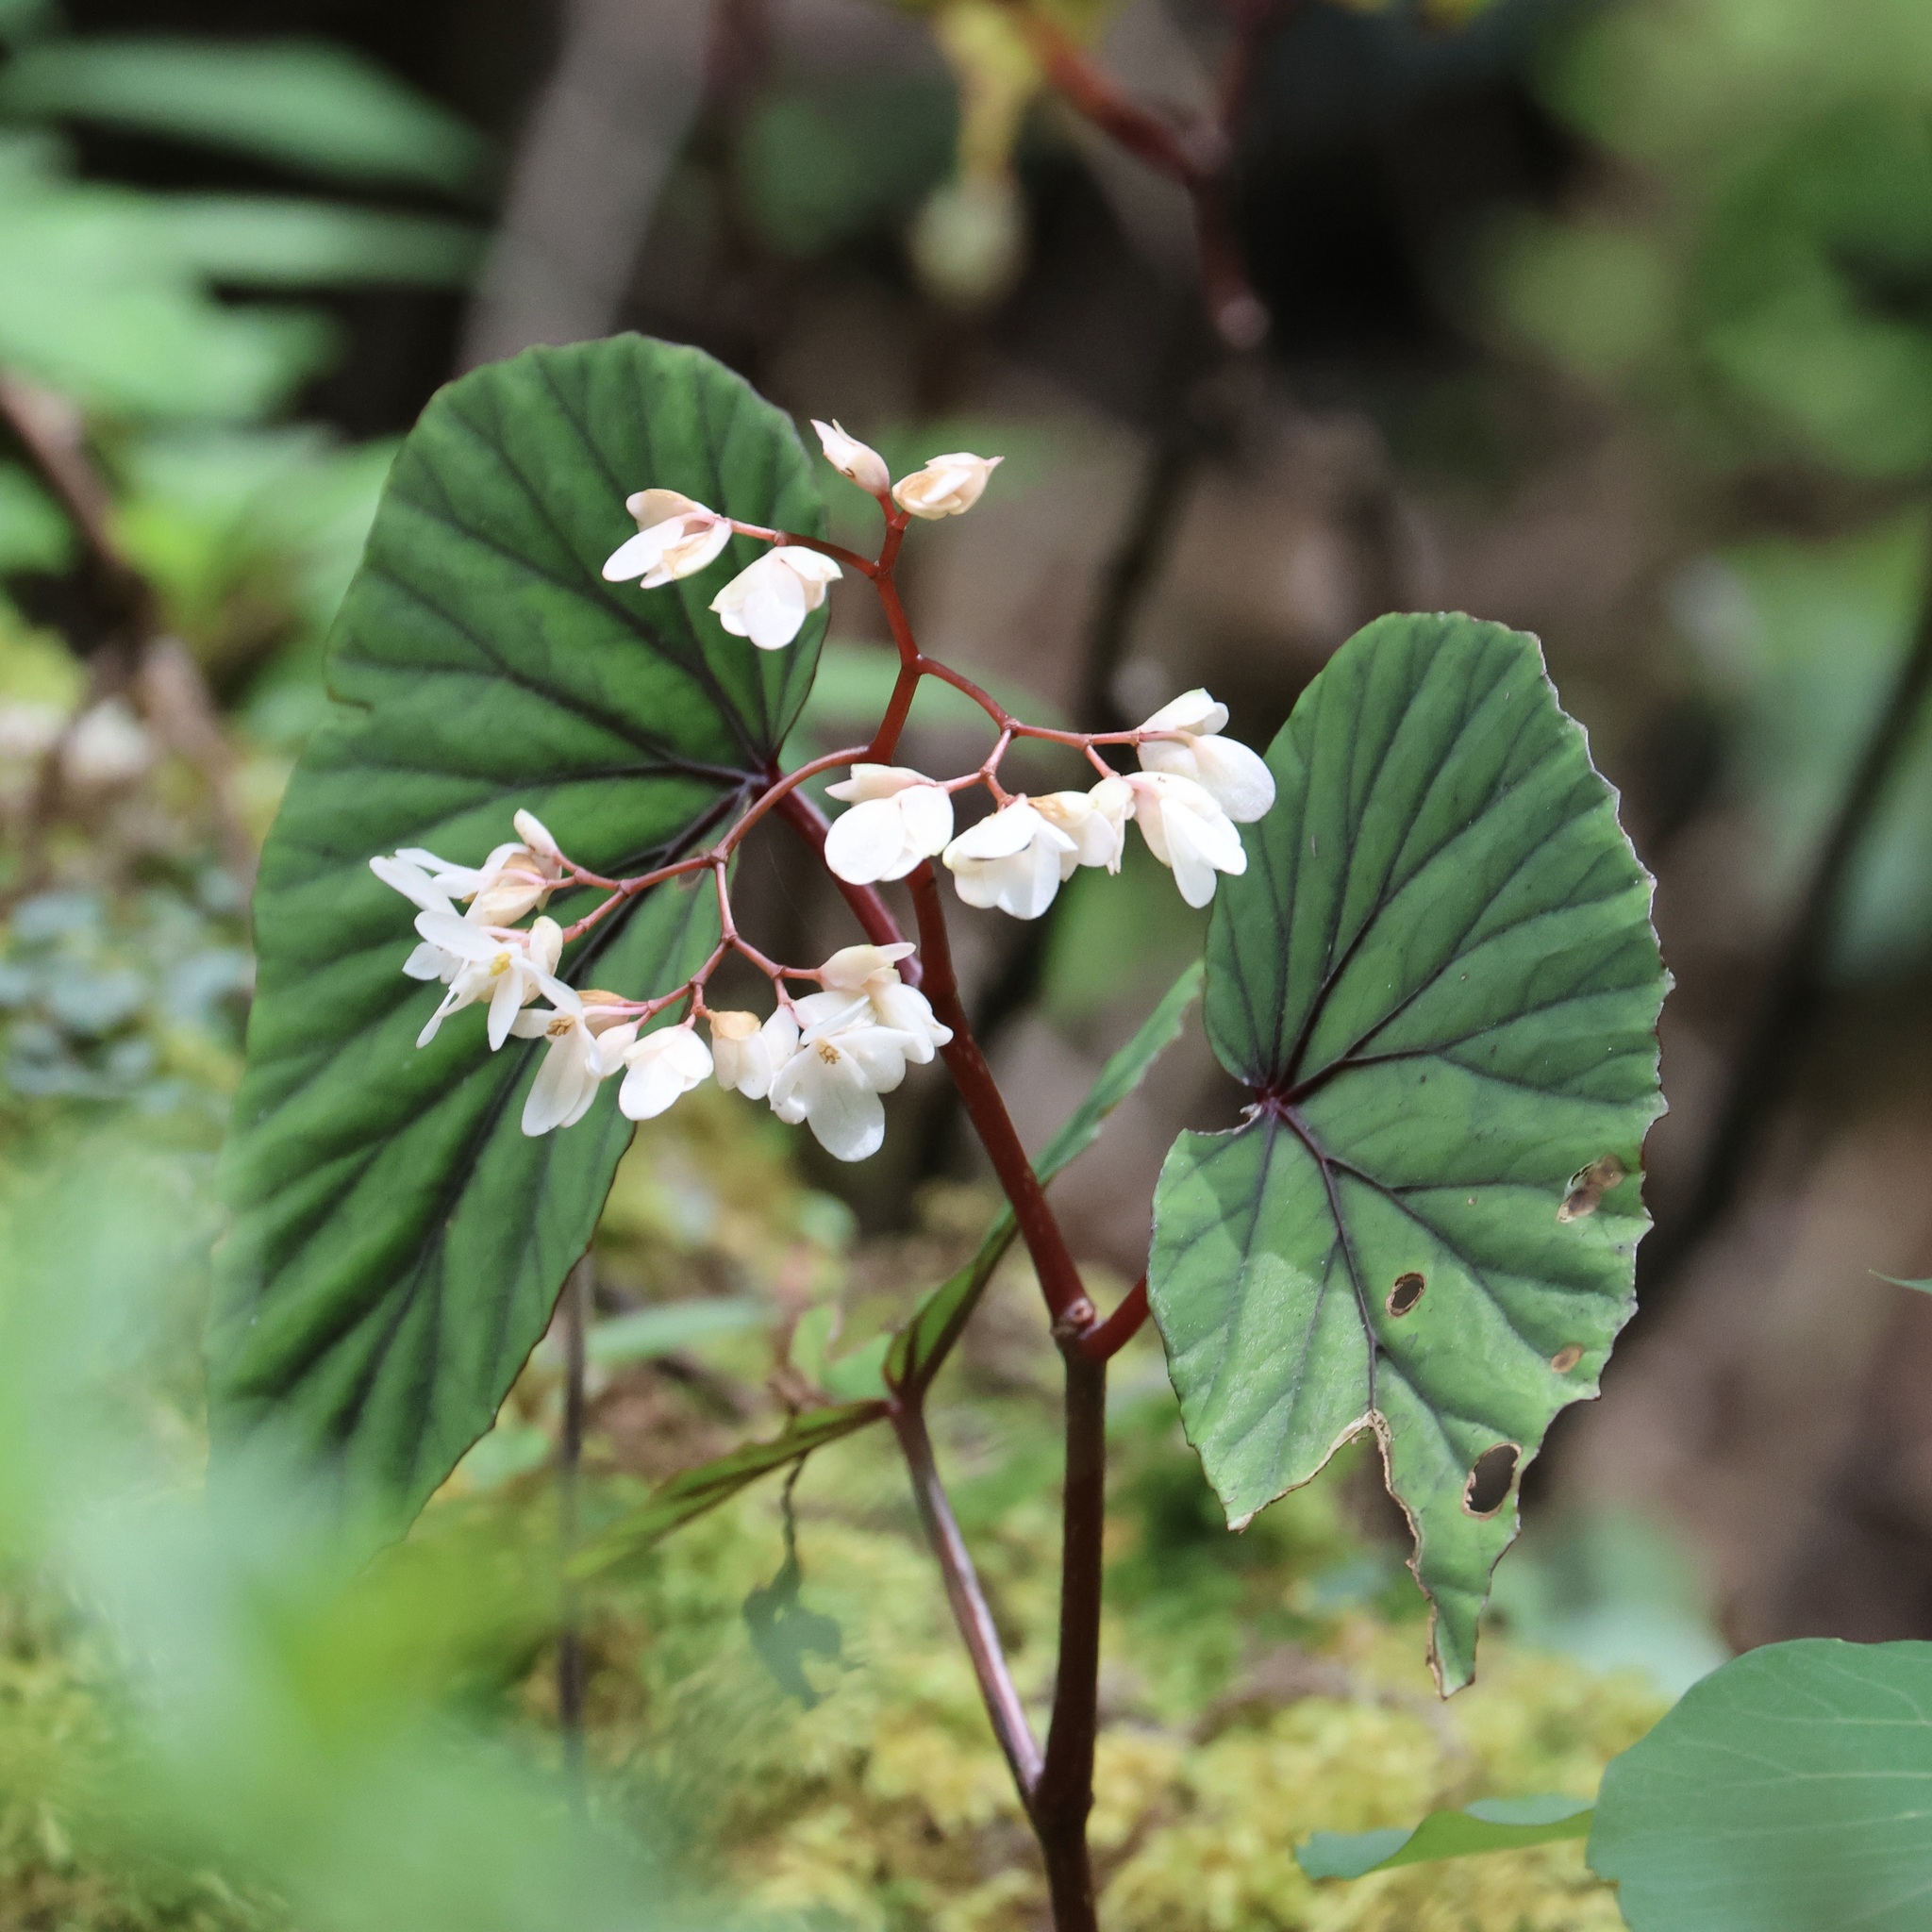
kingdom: Plantae
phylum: Tracheophyta
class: Magnoliopsida
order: Cucurbitales
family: Begoniaceae
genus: Begonia
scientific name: Begonia beryllae
